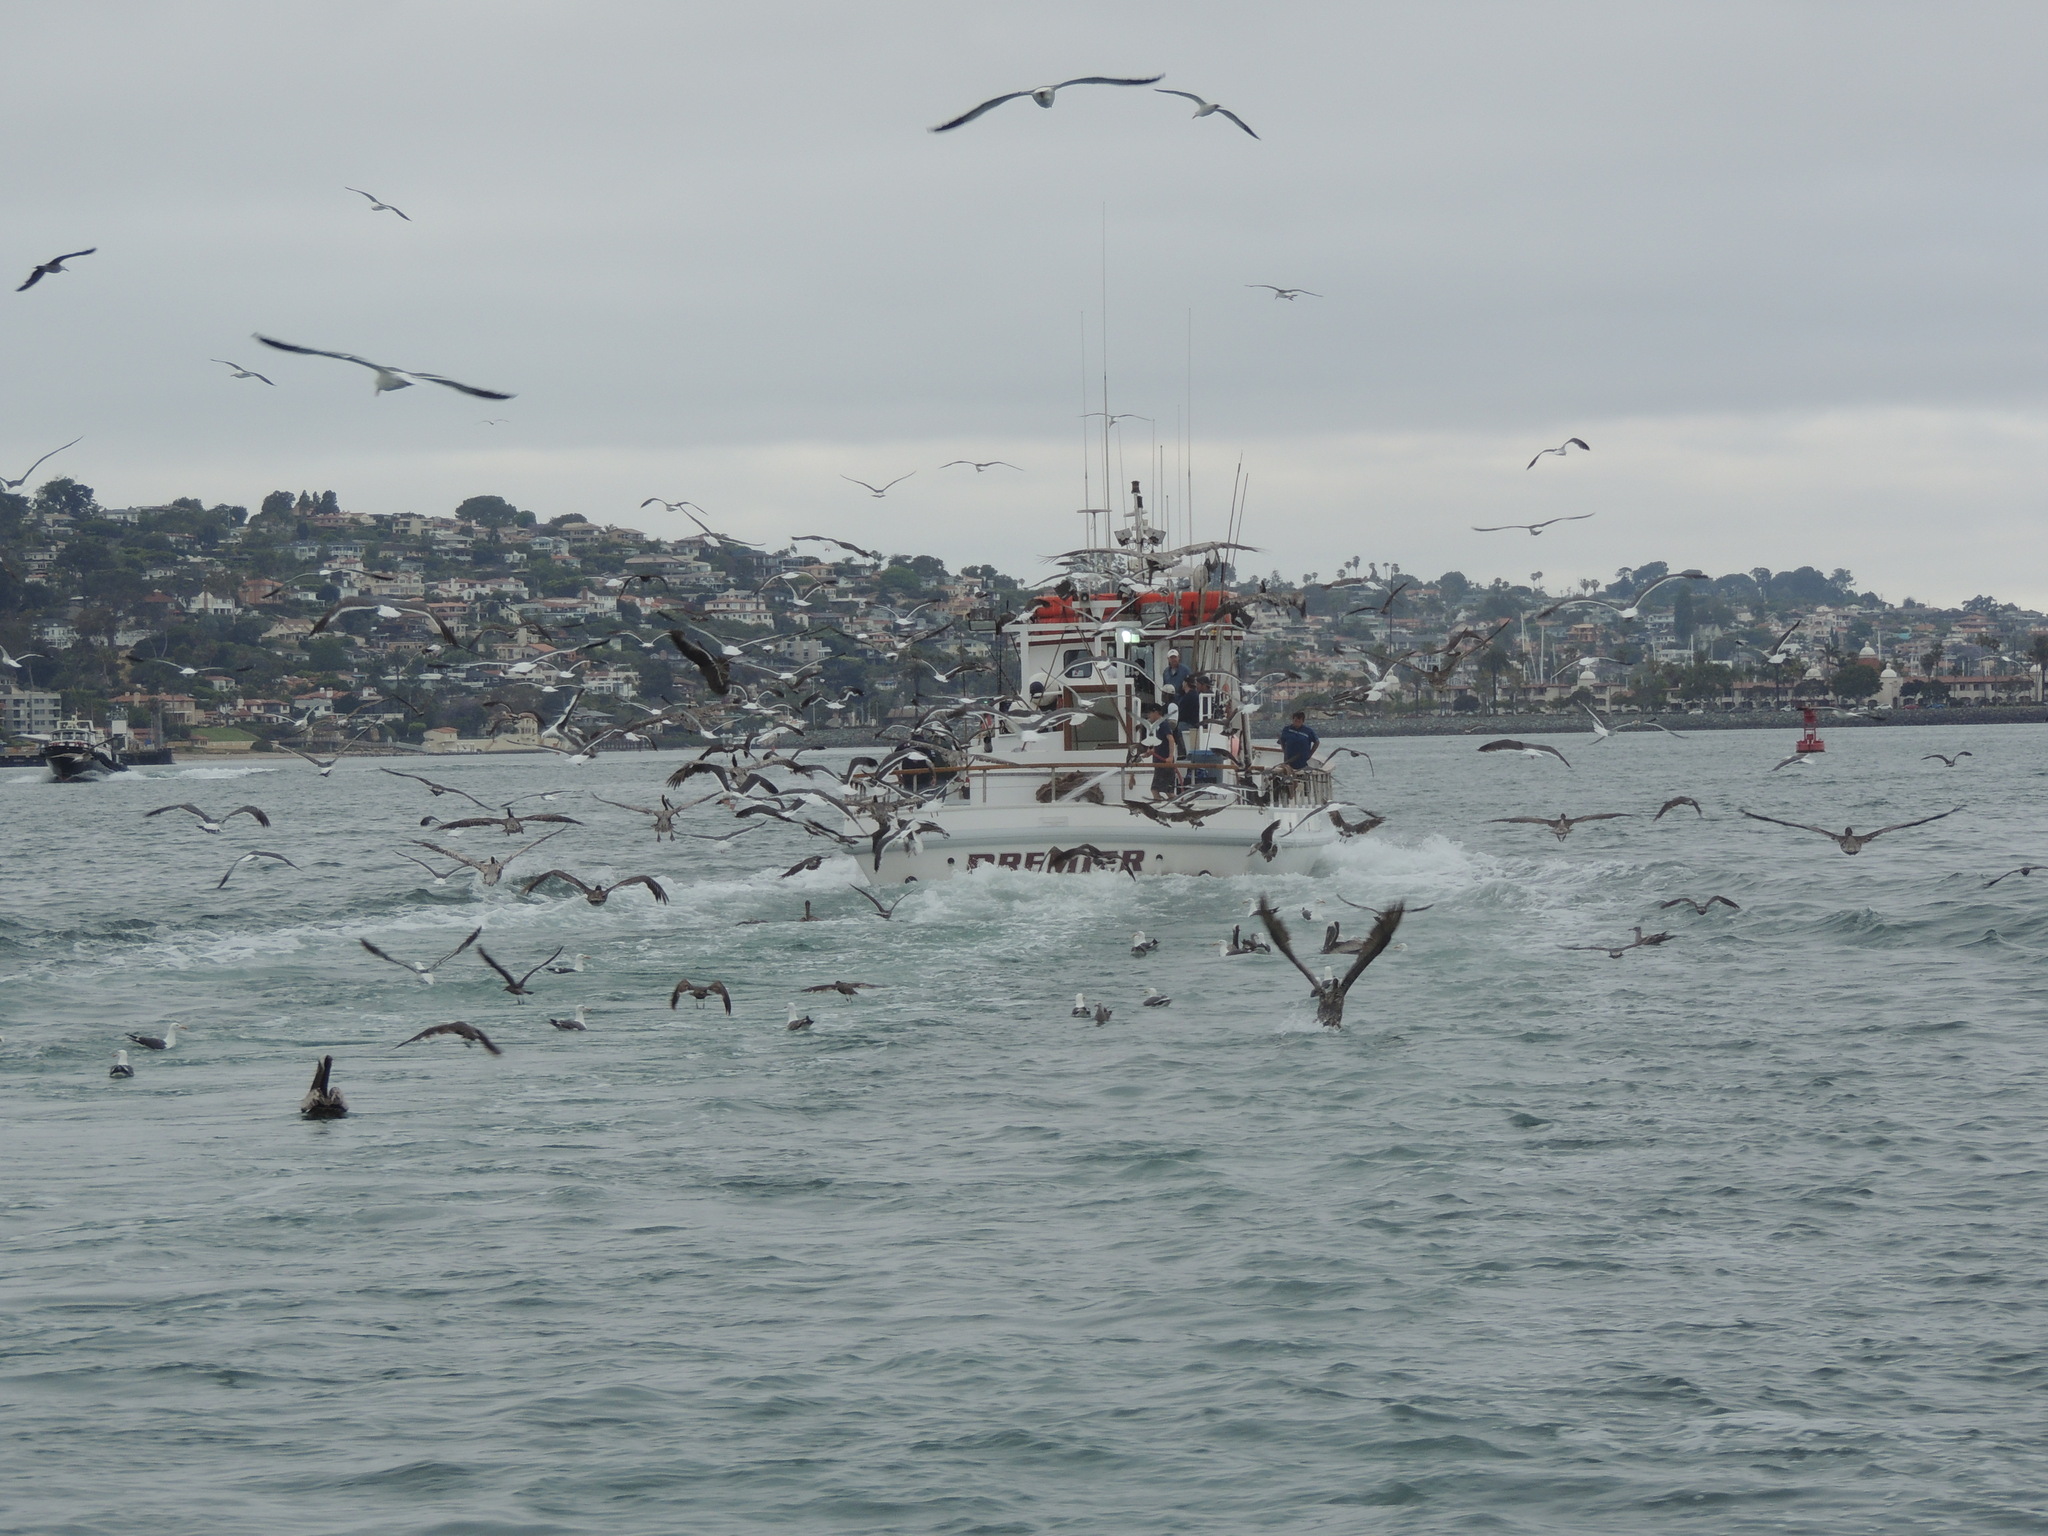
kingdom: Animalia
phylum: Chordata
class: Aves
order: Charadriiformes
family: Laridae
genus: Larus
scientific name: Larus occidentalis
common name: Western gull
